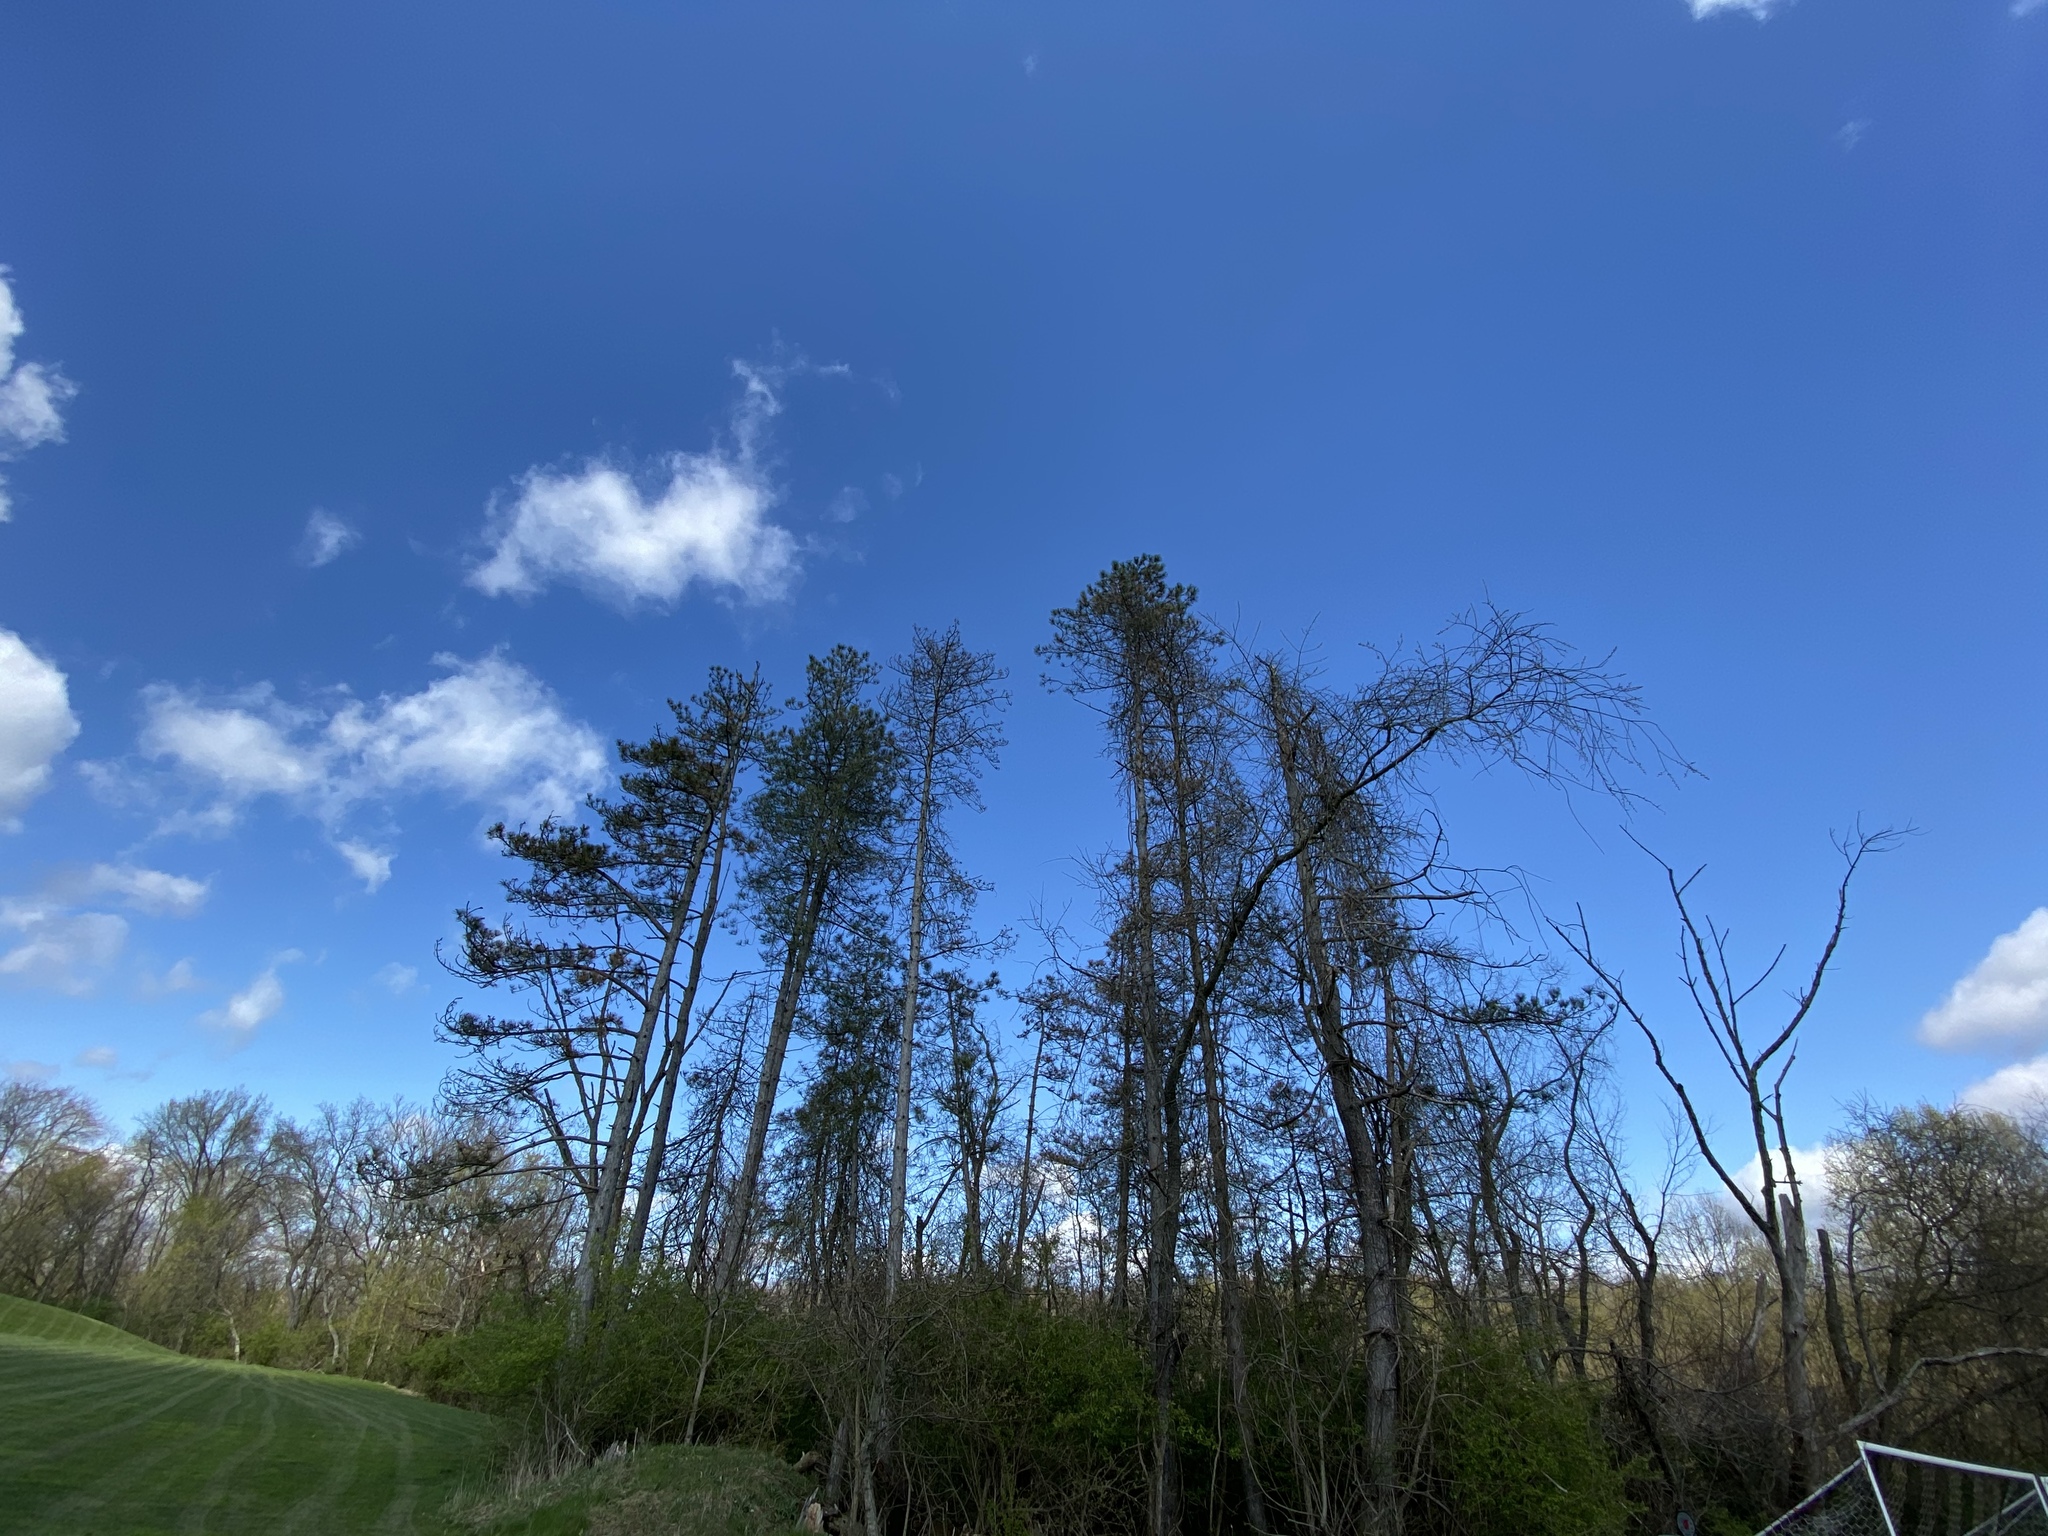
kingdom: Plantae
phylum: Tracheophyta
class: Pinopsida
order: Pinales
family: Pinaceae
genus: Pinus
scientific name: Pinus resinosa
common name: Norway pine
